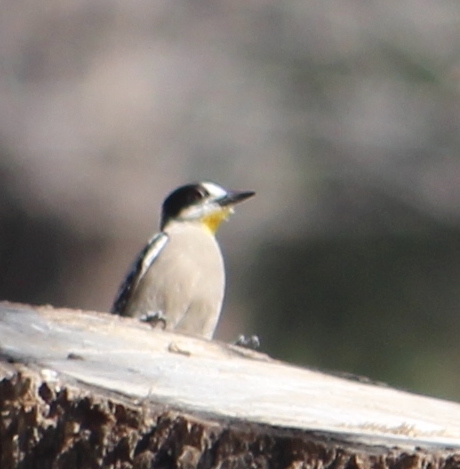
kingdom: Animalia
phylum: Chordata
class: Aves
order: Piciformes
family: Picidae
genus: Melanerpes
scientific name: Melanerpes cactorum
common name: White-fronted woodpecker
